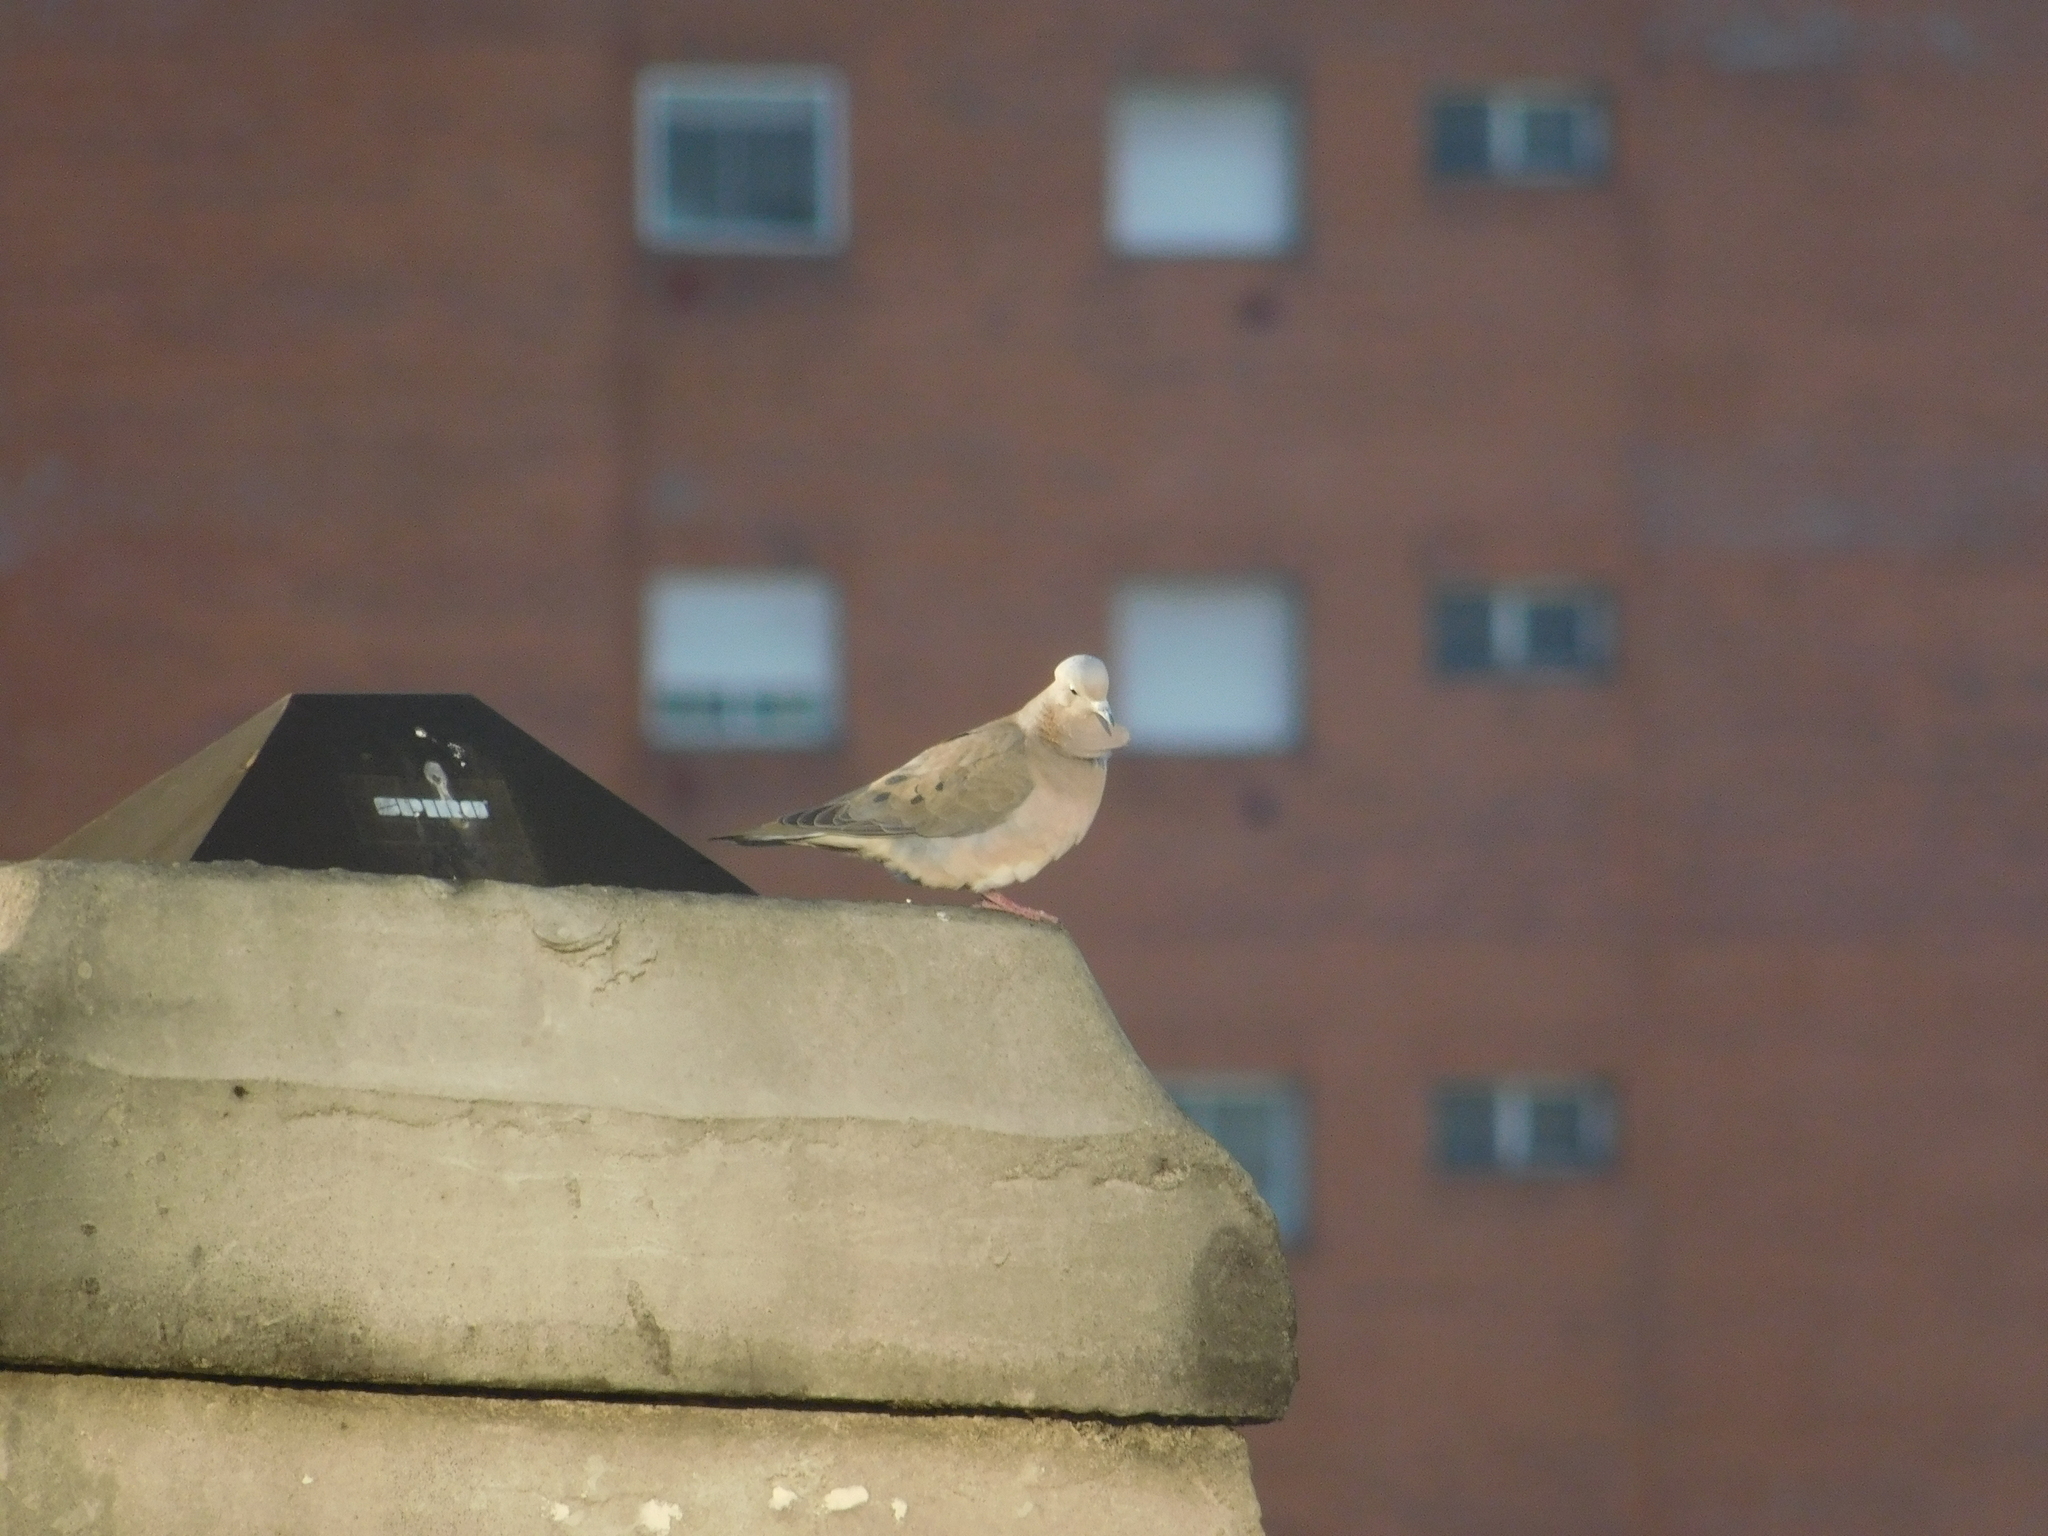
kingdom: Animalia
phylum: Chordata
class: Aves
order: Columbiformes
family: Columbidae
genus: Zenaida
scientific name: Zenaida auriculata
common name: Eared dove
